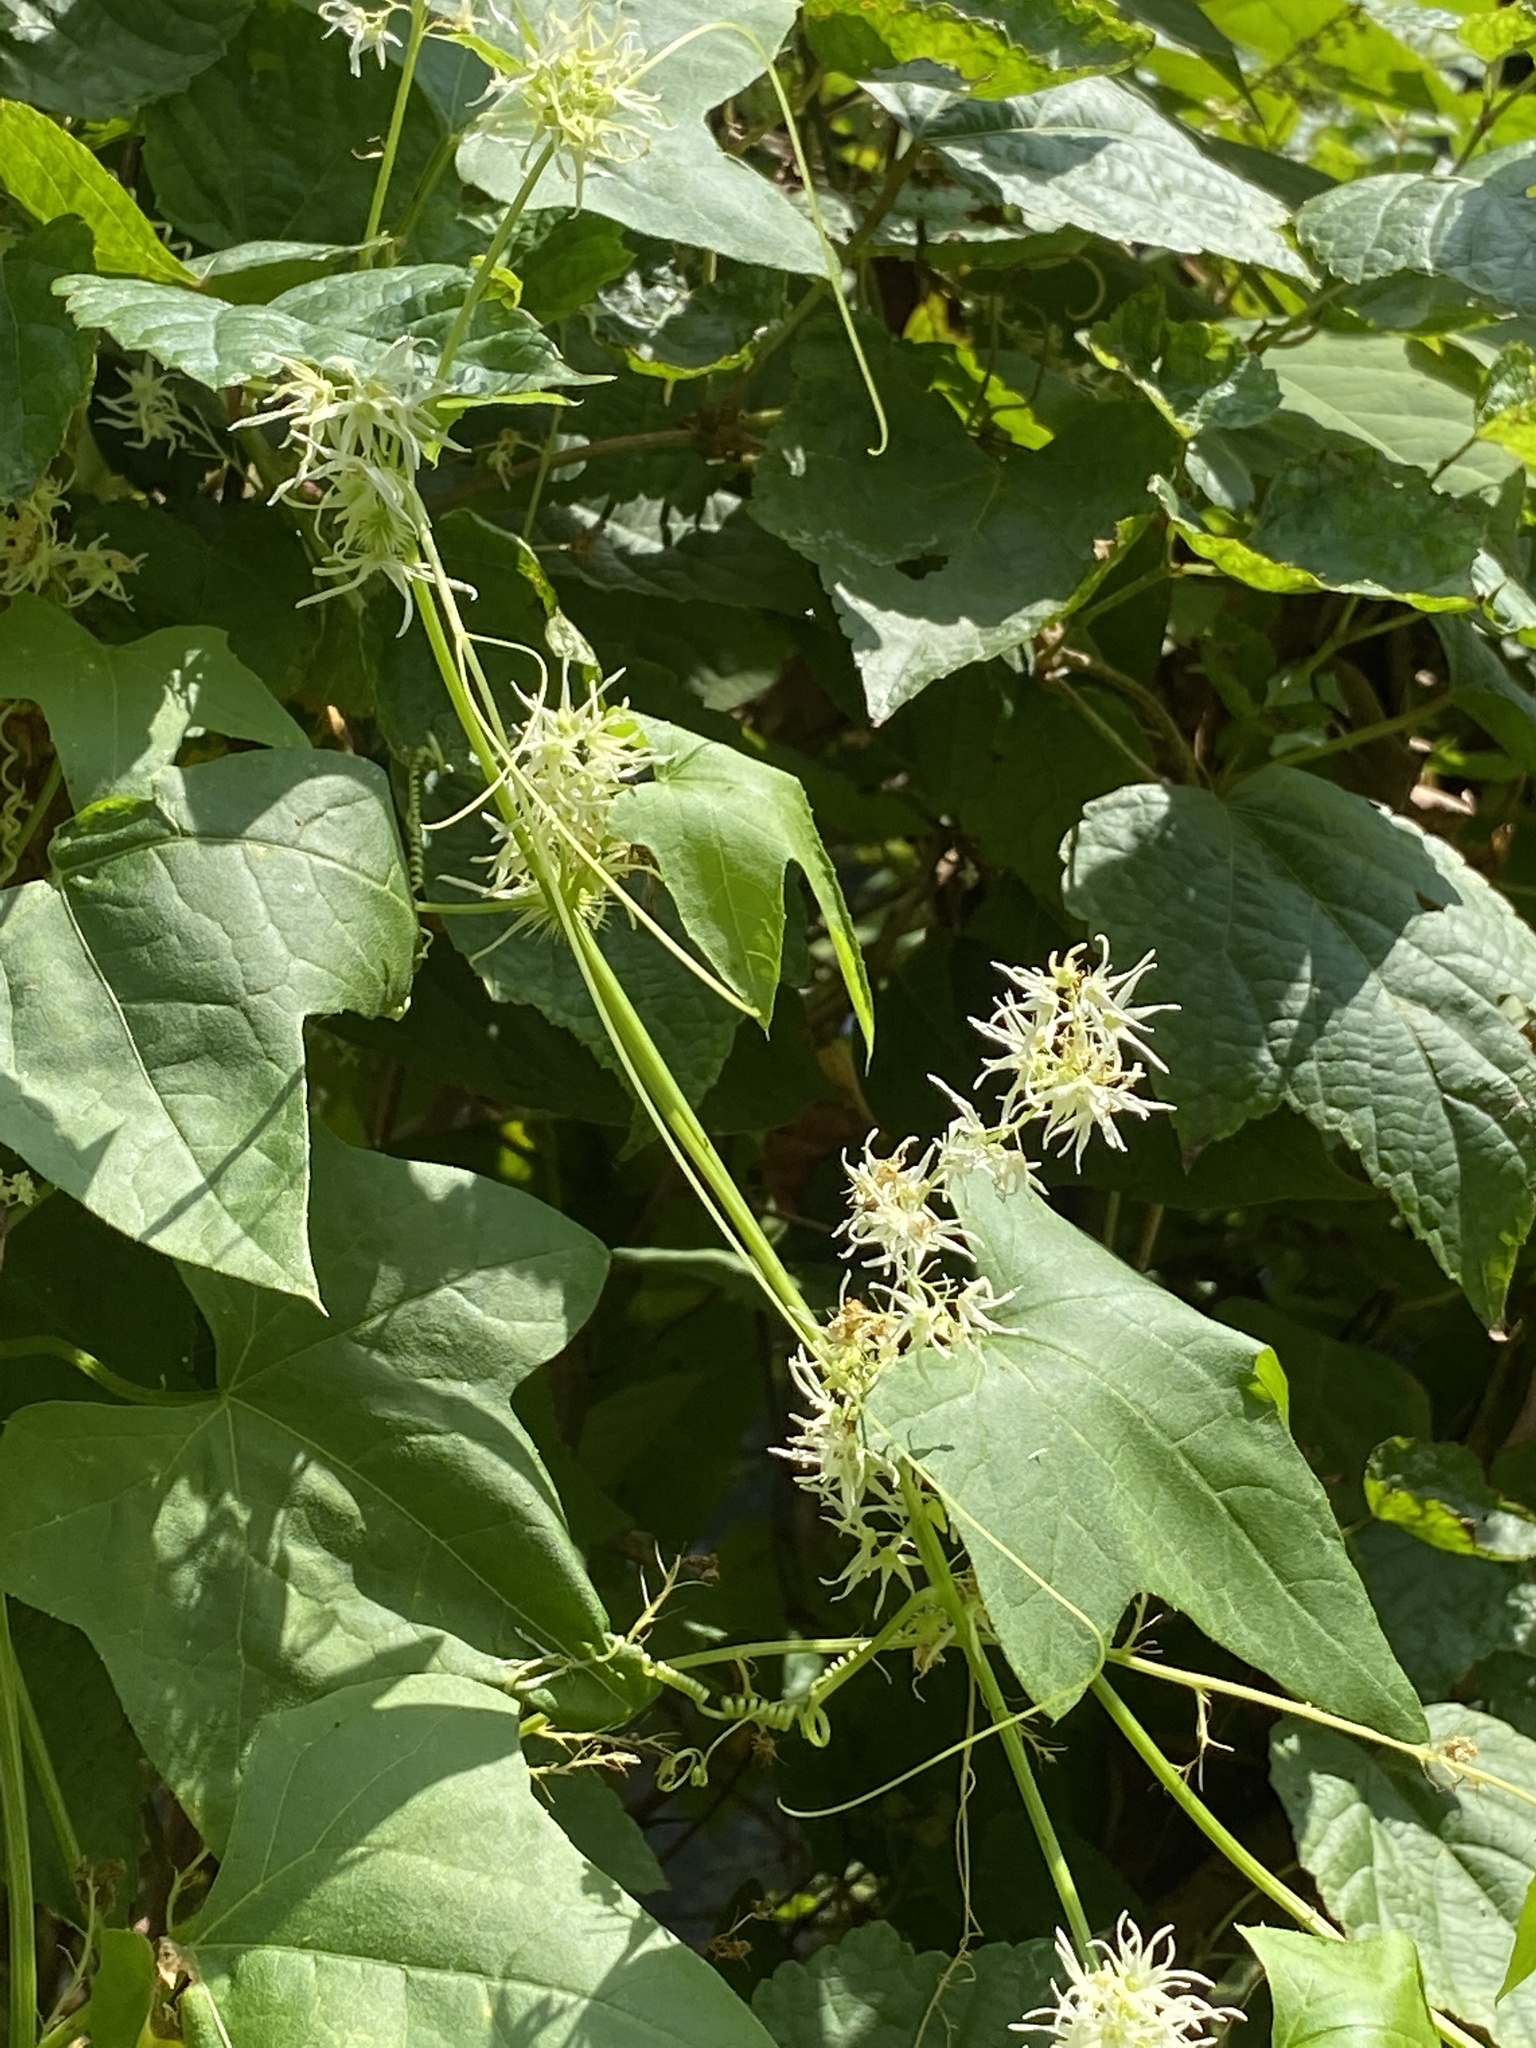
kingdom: Plantae
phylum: Tracheophyta
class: Magnoliopsida
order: Cucurbitales
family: Cucurbitaceae
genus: Echinocystis
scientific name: Echinocystis lobata
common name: Wild cucumber
